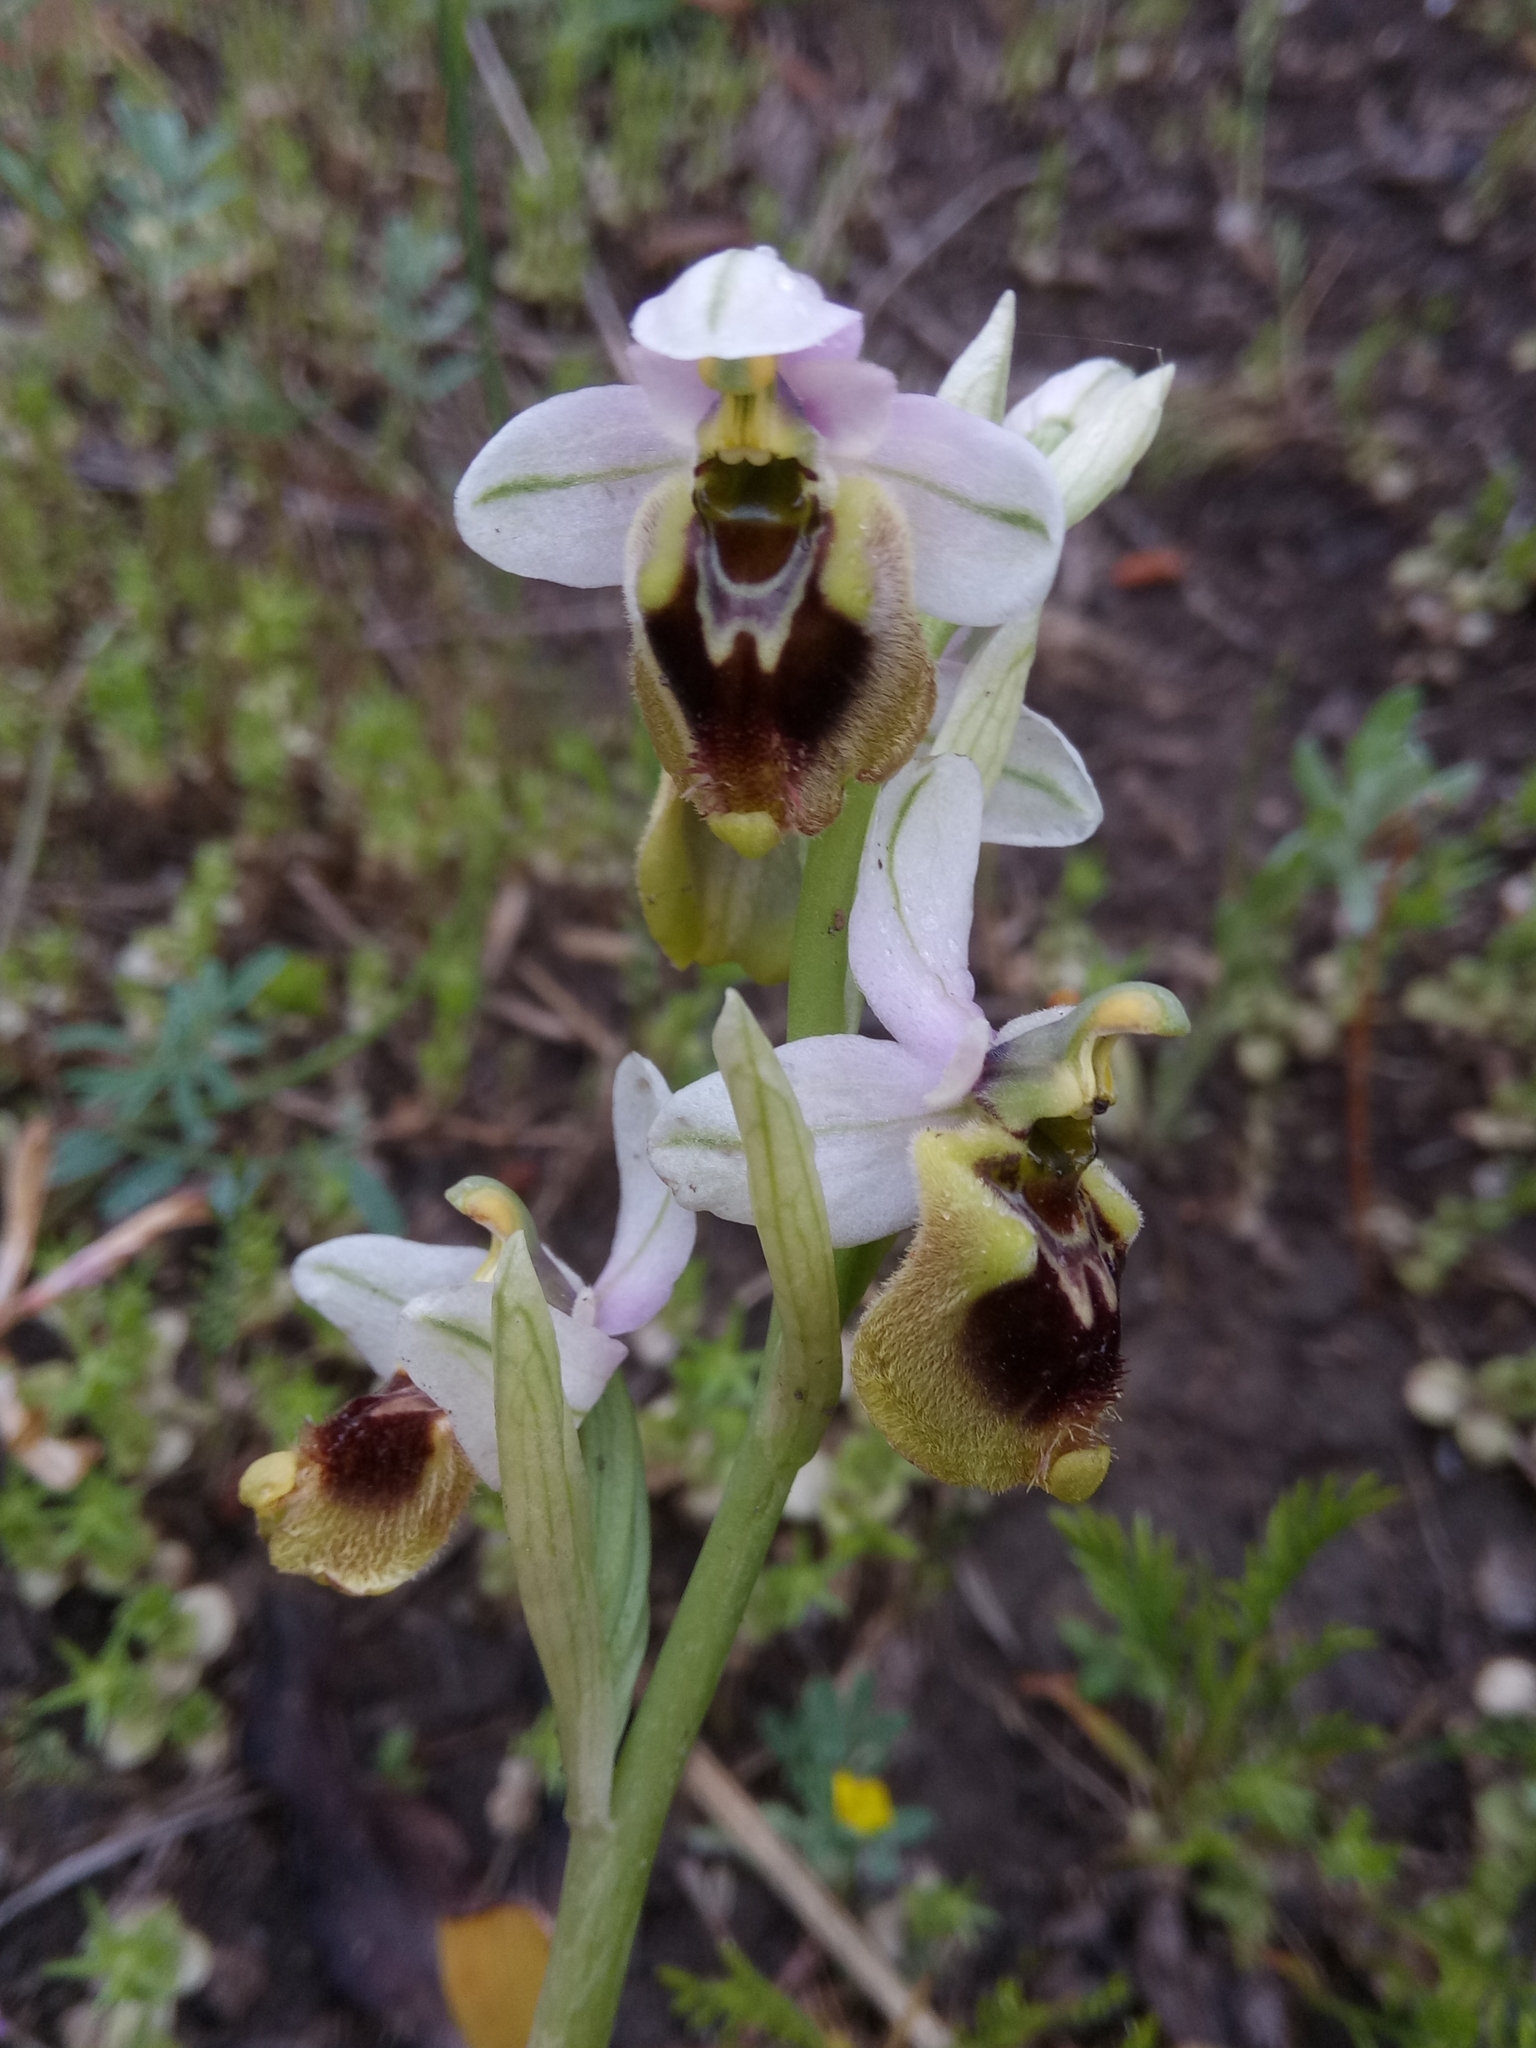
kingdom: Plantae
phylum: Tracheophyta
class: Liliopsida
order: Asparagales
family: Orchidaceae
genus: Ophrys
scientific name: Ophrys tenthredinifera
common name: Sawfly orchid
